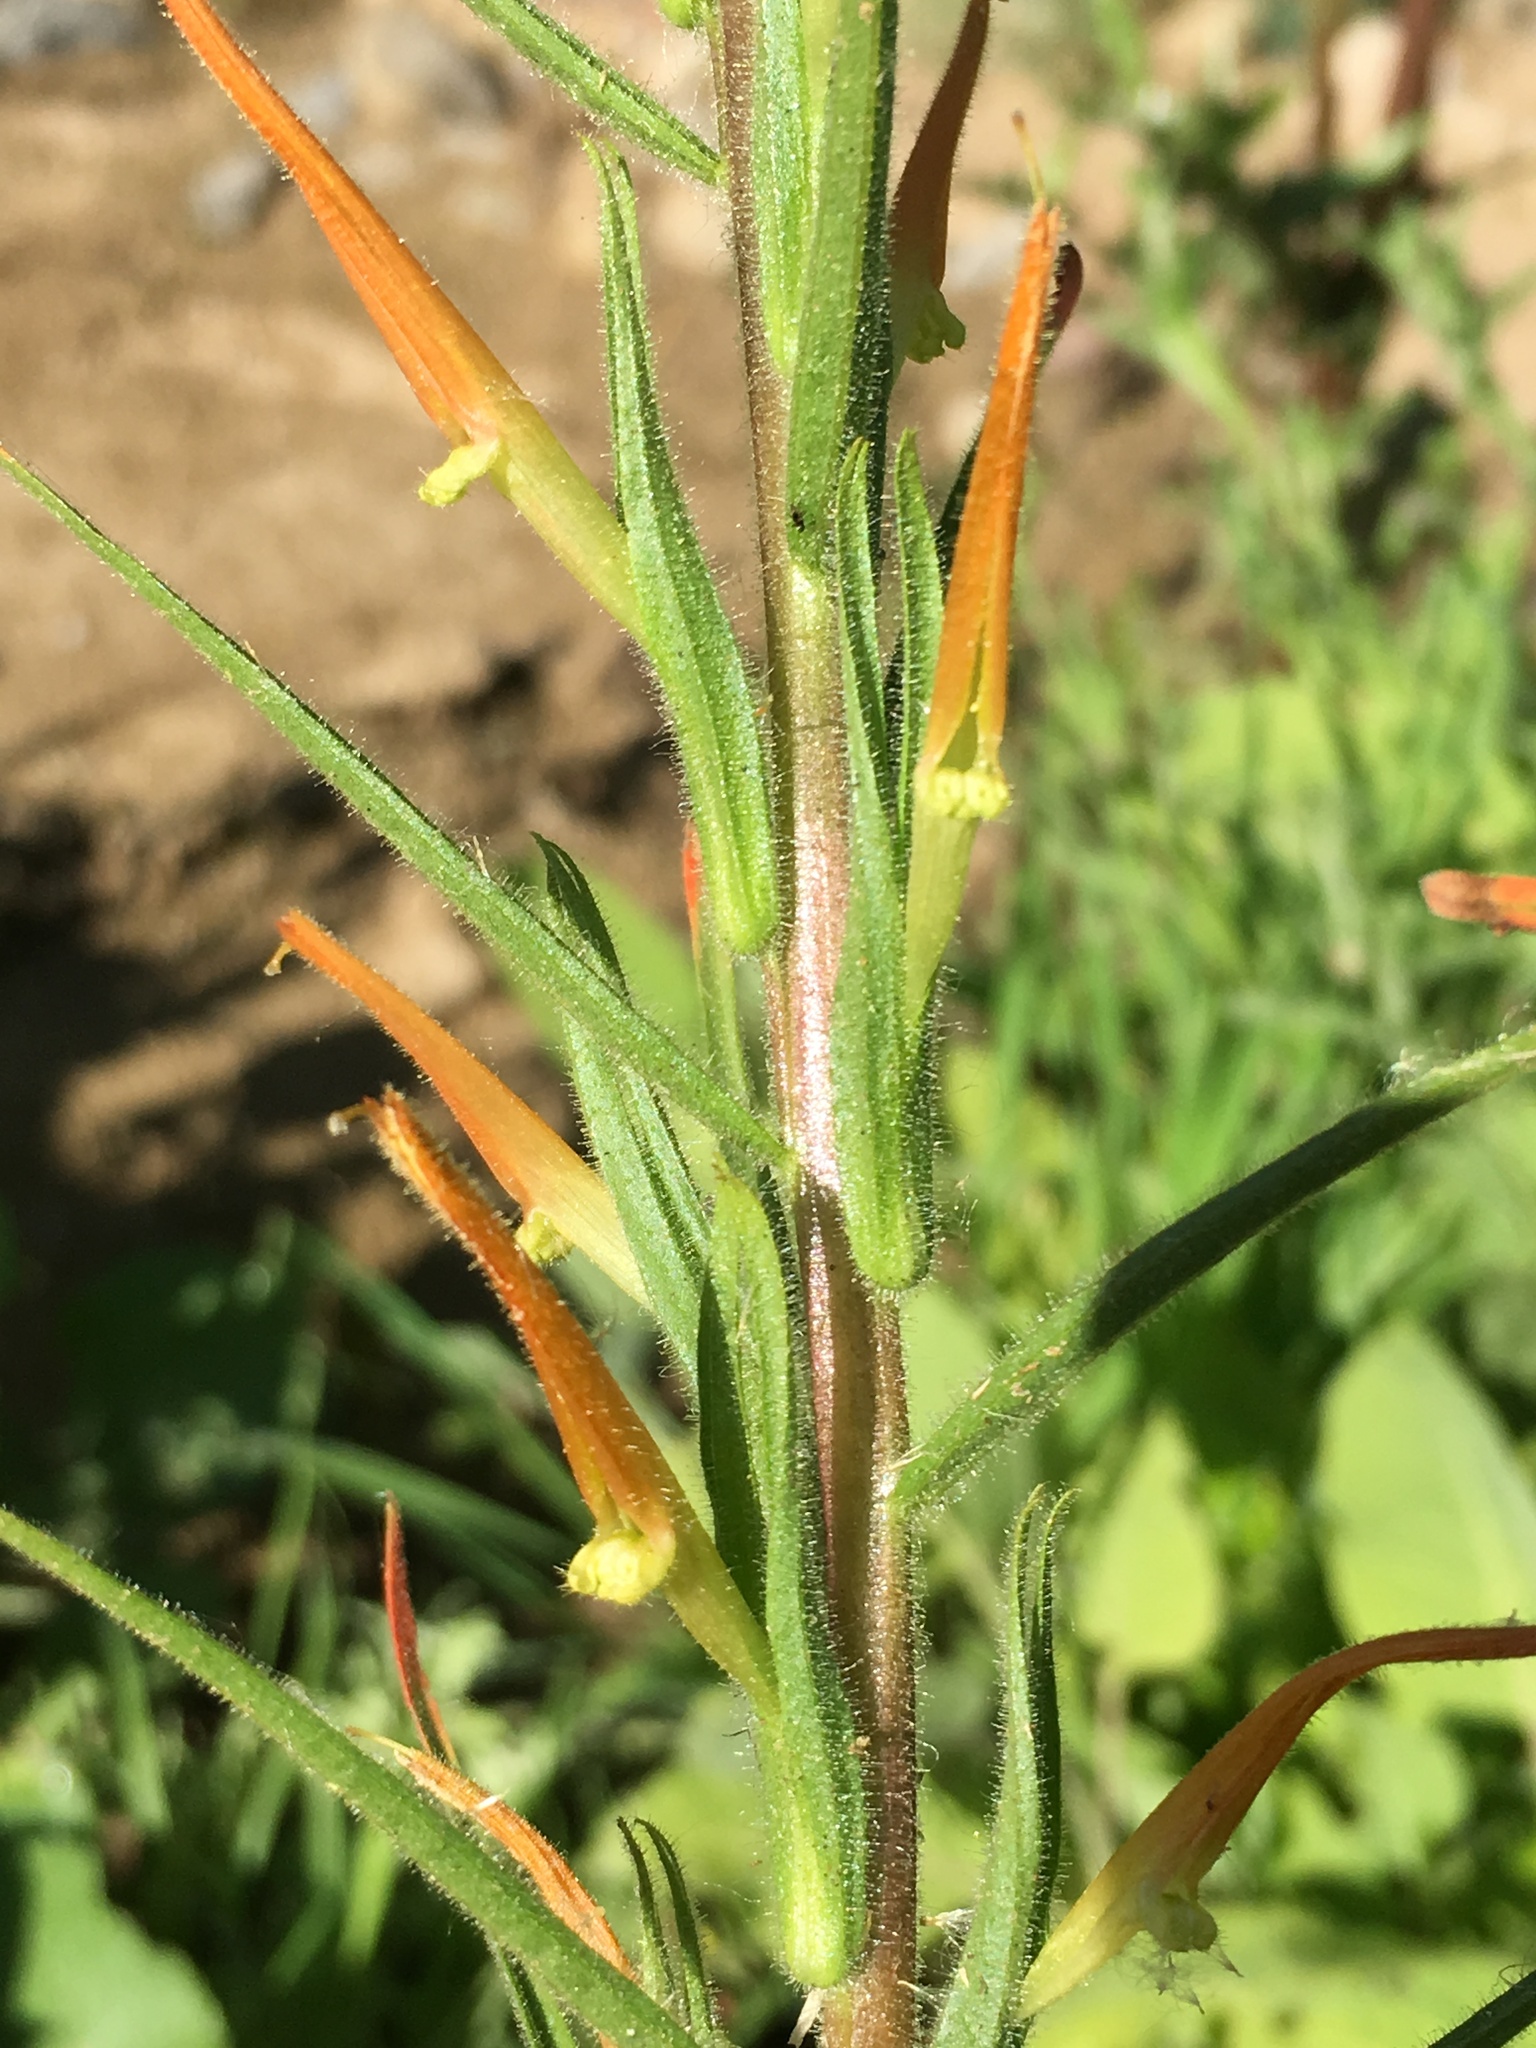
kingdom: Plantae
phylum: Tracheophyta
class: Magnoliopsida
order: Lamiales
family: Orobanchaceae
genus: Castilleja
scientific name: Castilleja minor
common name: Seep paintbrush
